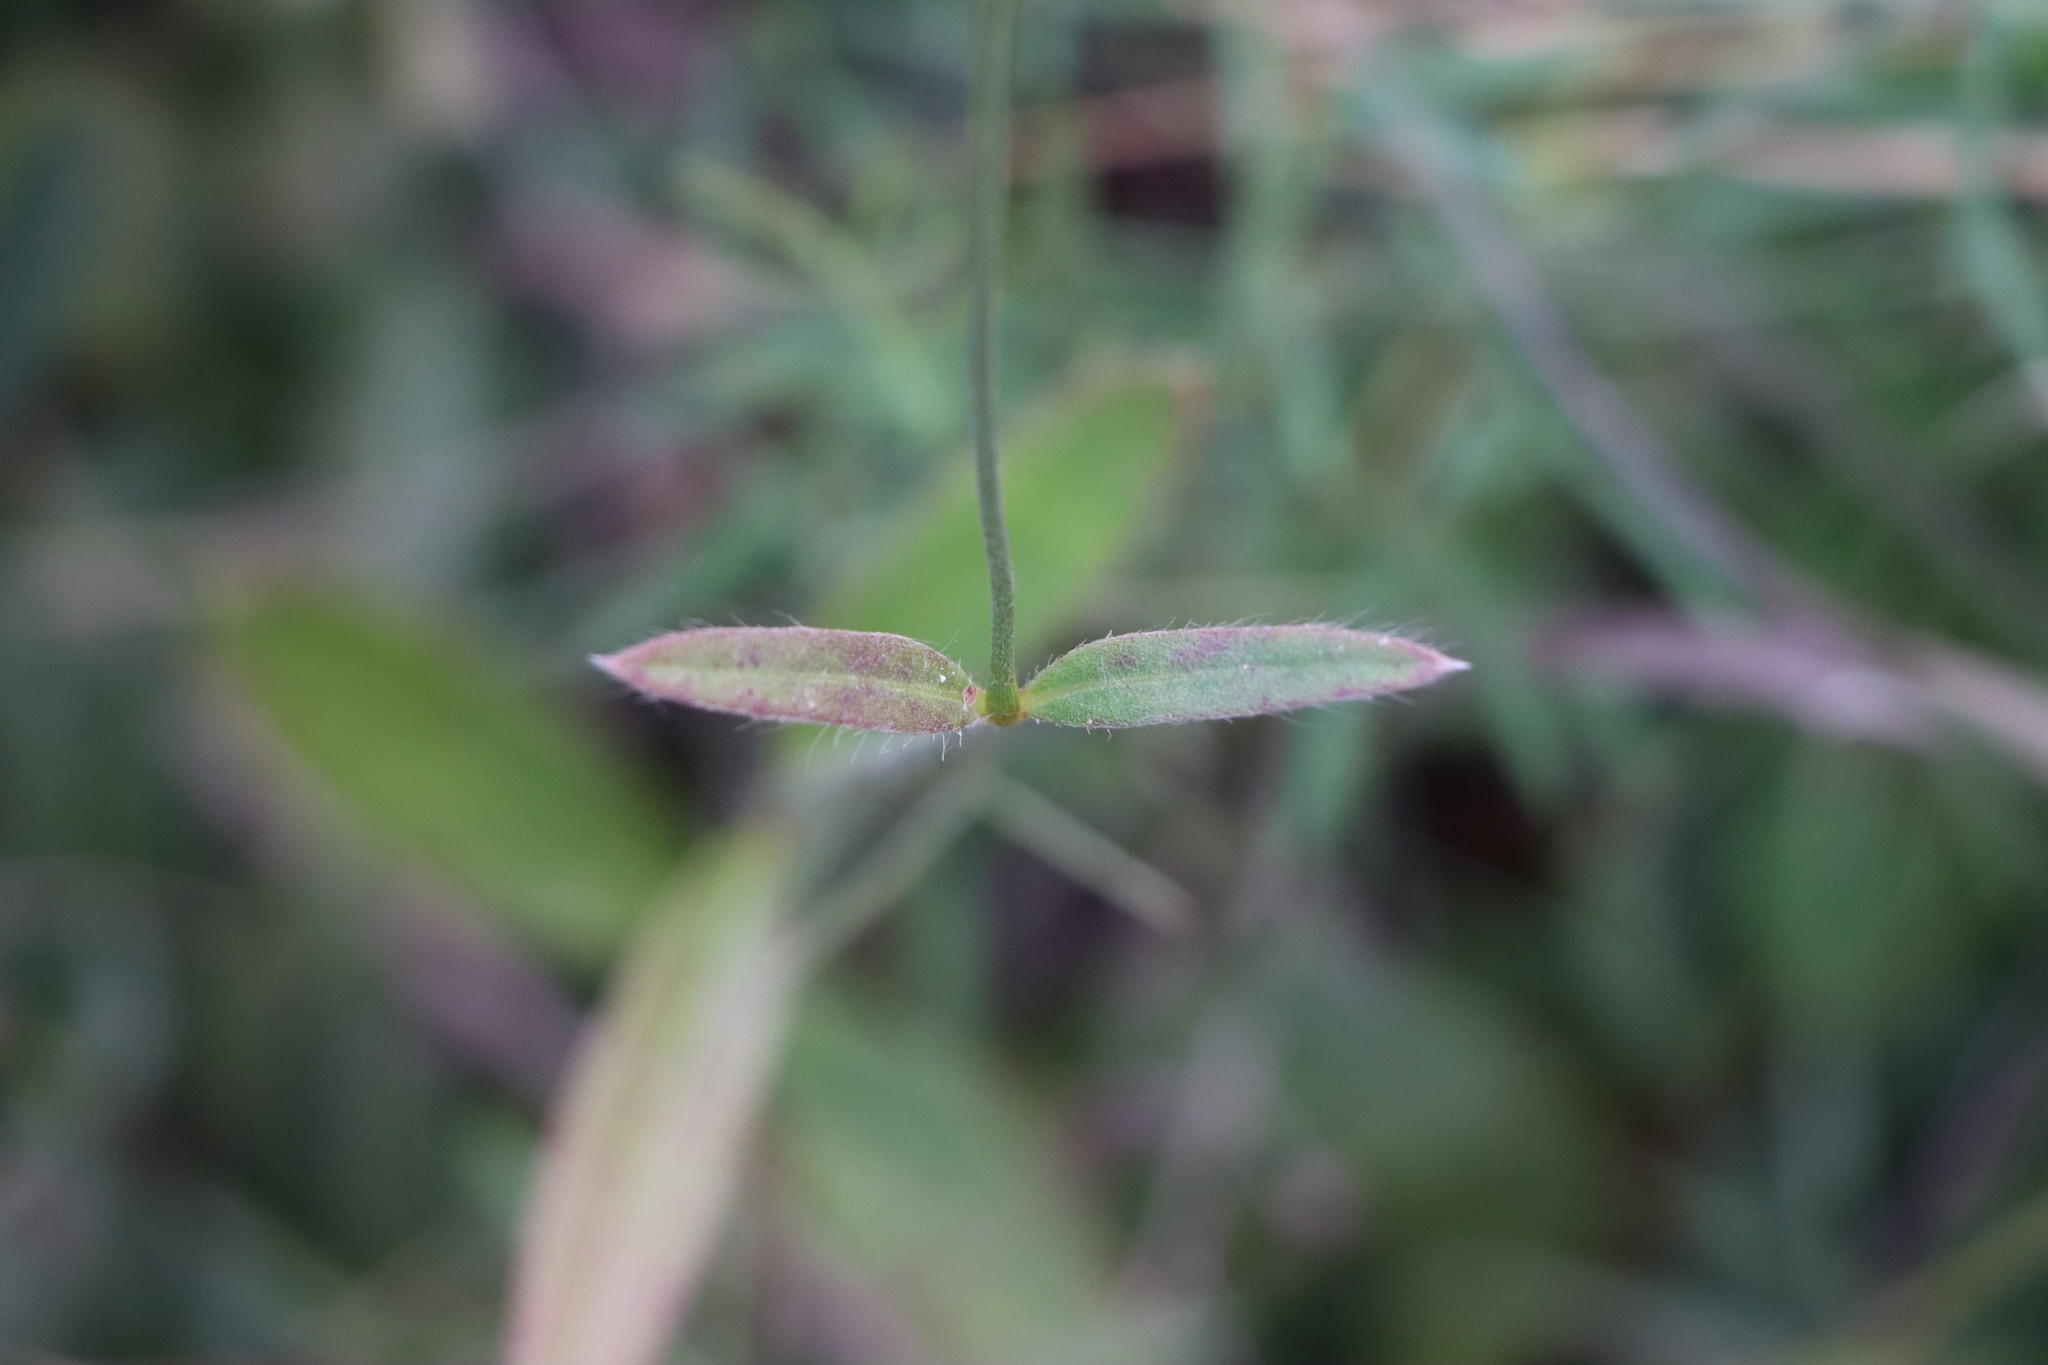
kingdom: Plantae
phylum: Tracheophyta
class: Magnoliopsida
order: Caryophyllales
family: Amaranthaceae
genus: Pfaffia
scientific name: Pfaffia tuberosa
